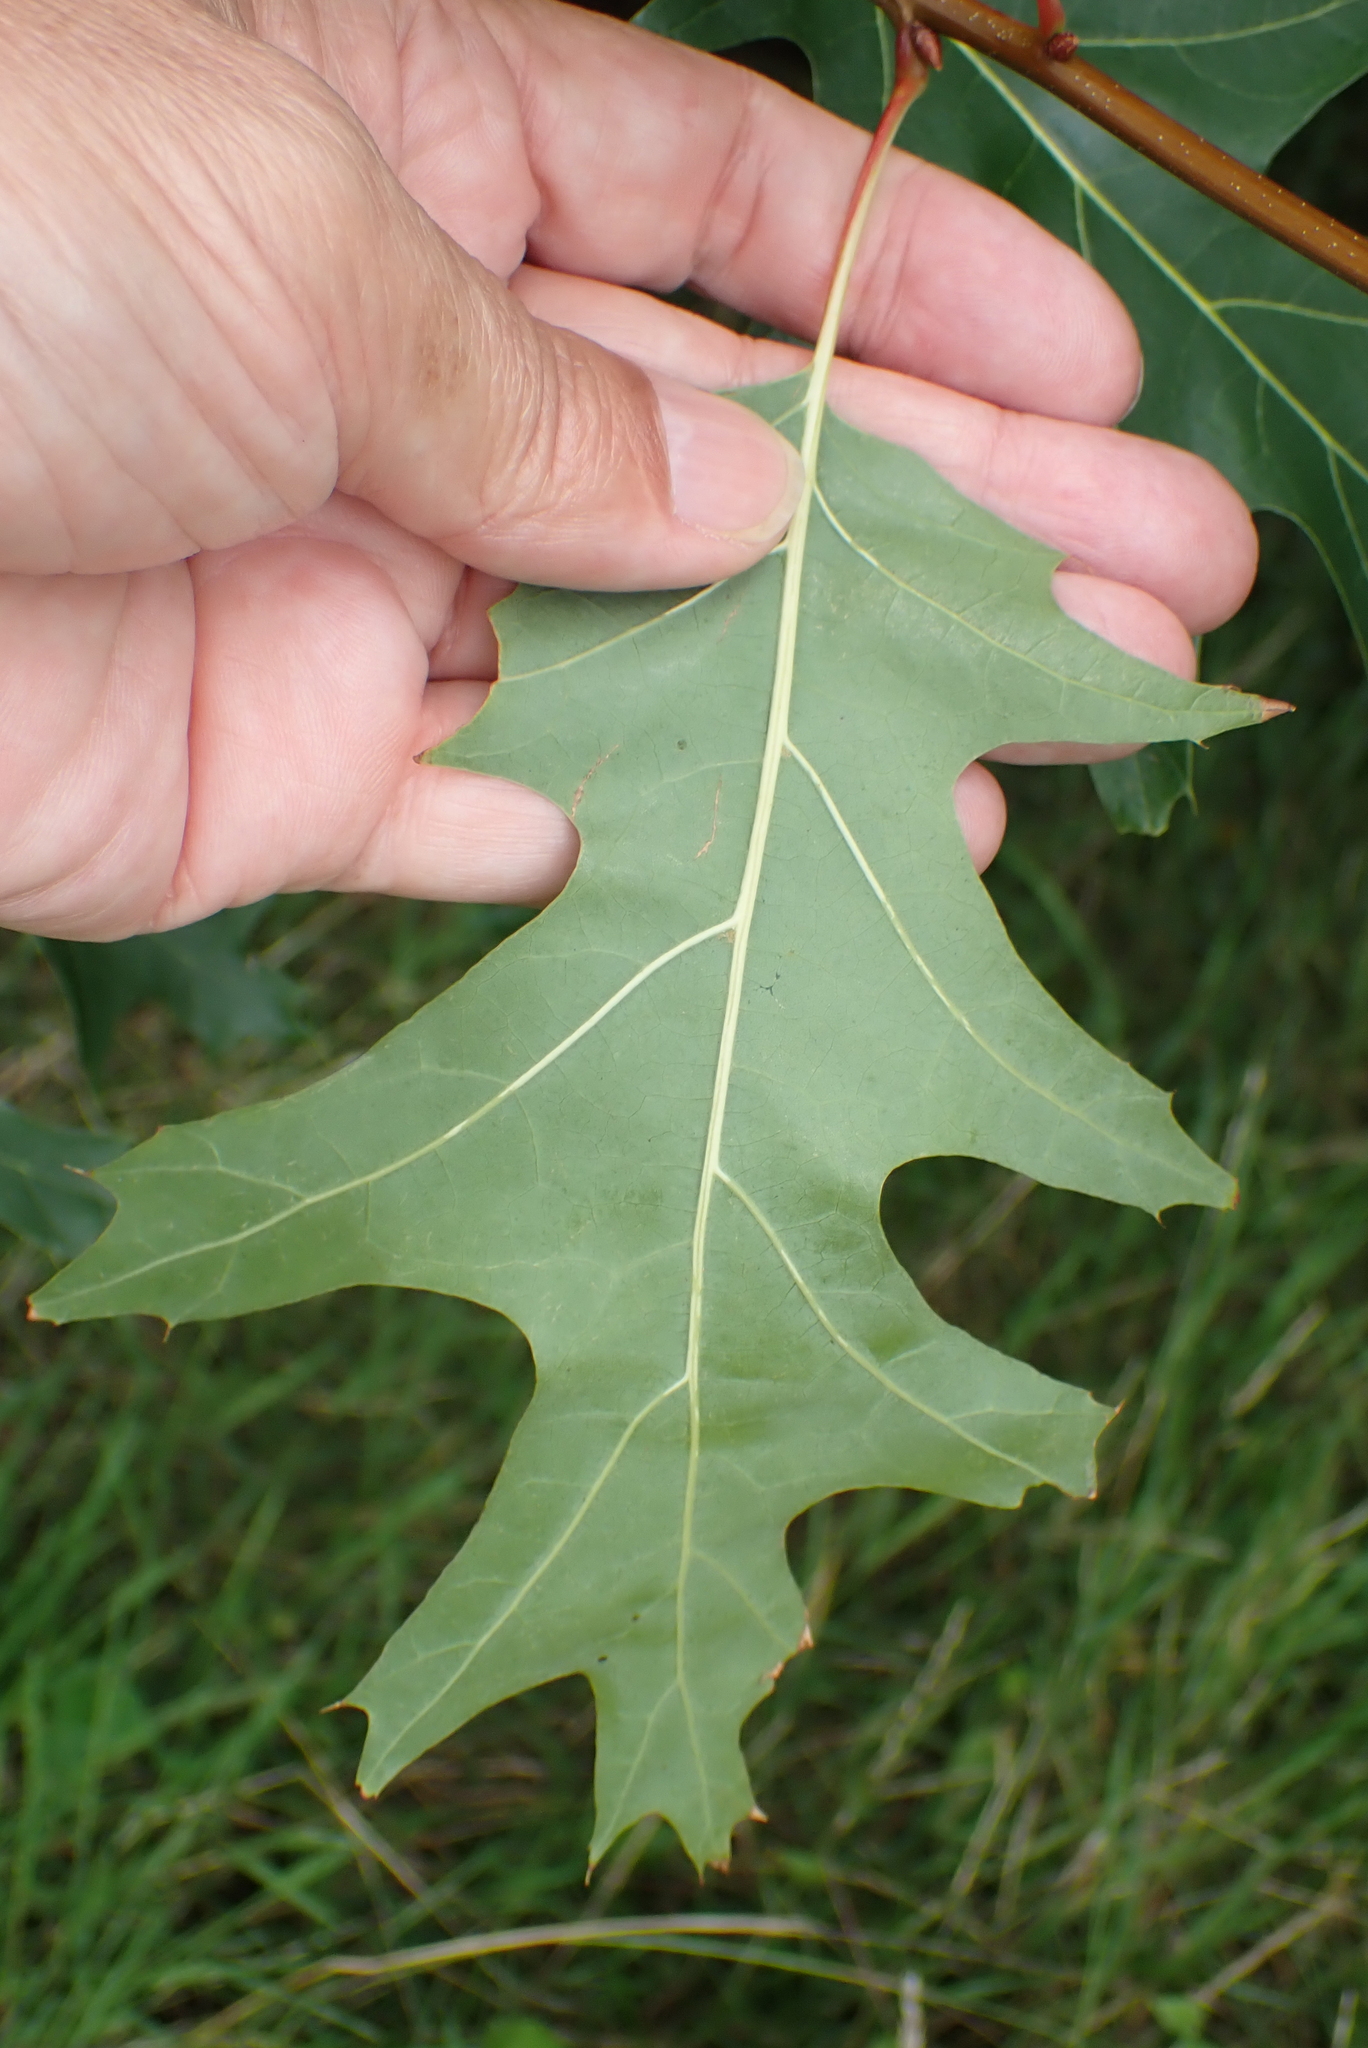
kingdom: Plantae
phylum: Tracheophyta
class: Magnoliopsida
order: Fagales
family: Fagaceae
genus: Quercus
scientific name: Quercus rubra
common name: Red oak
